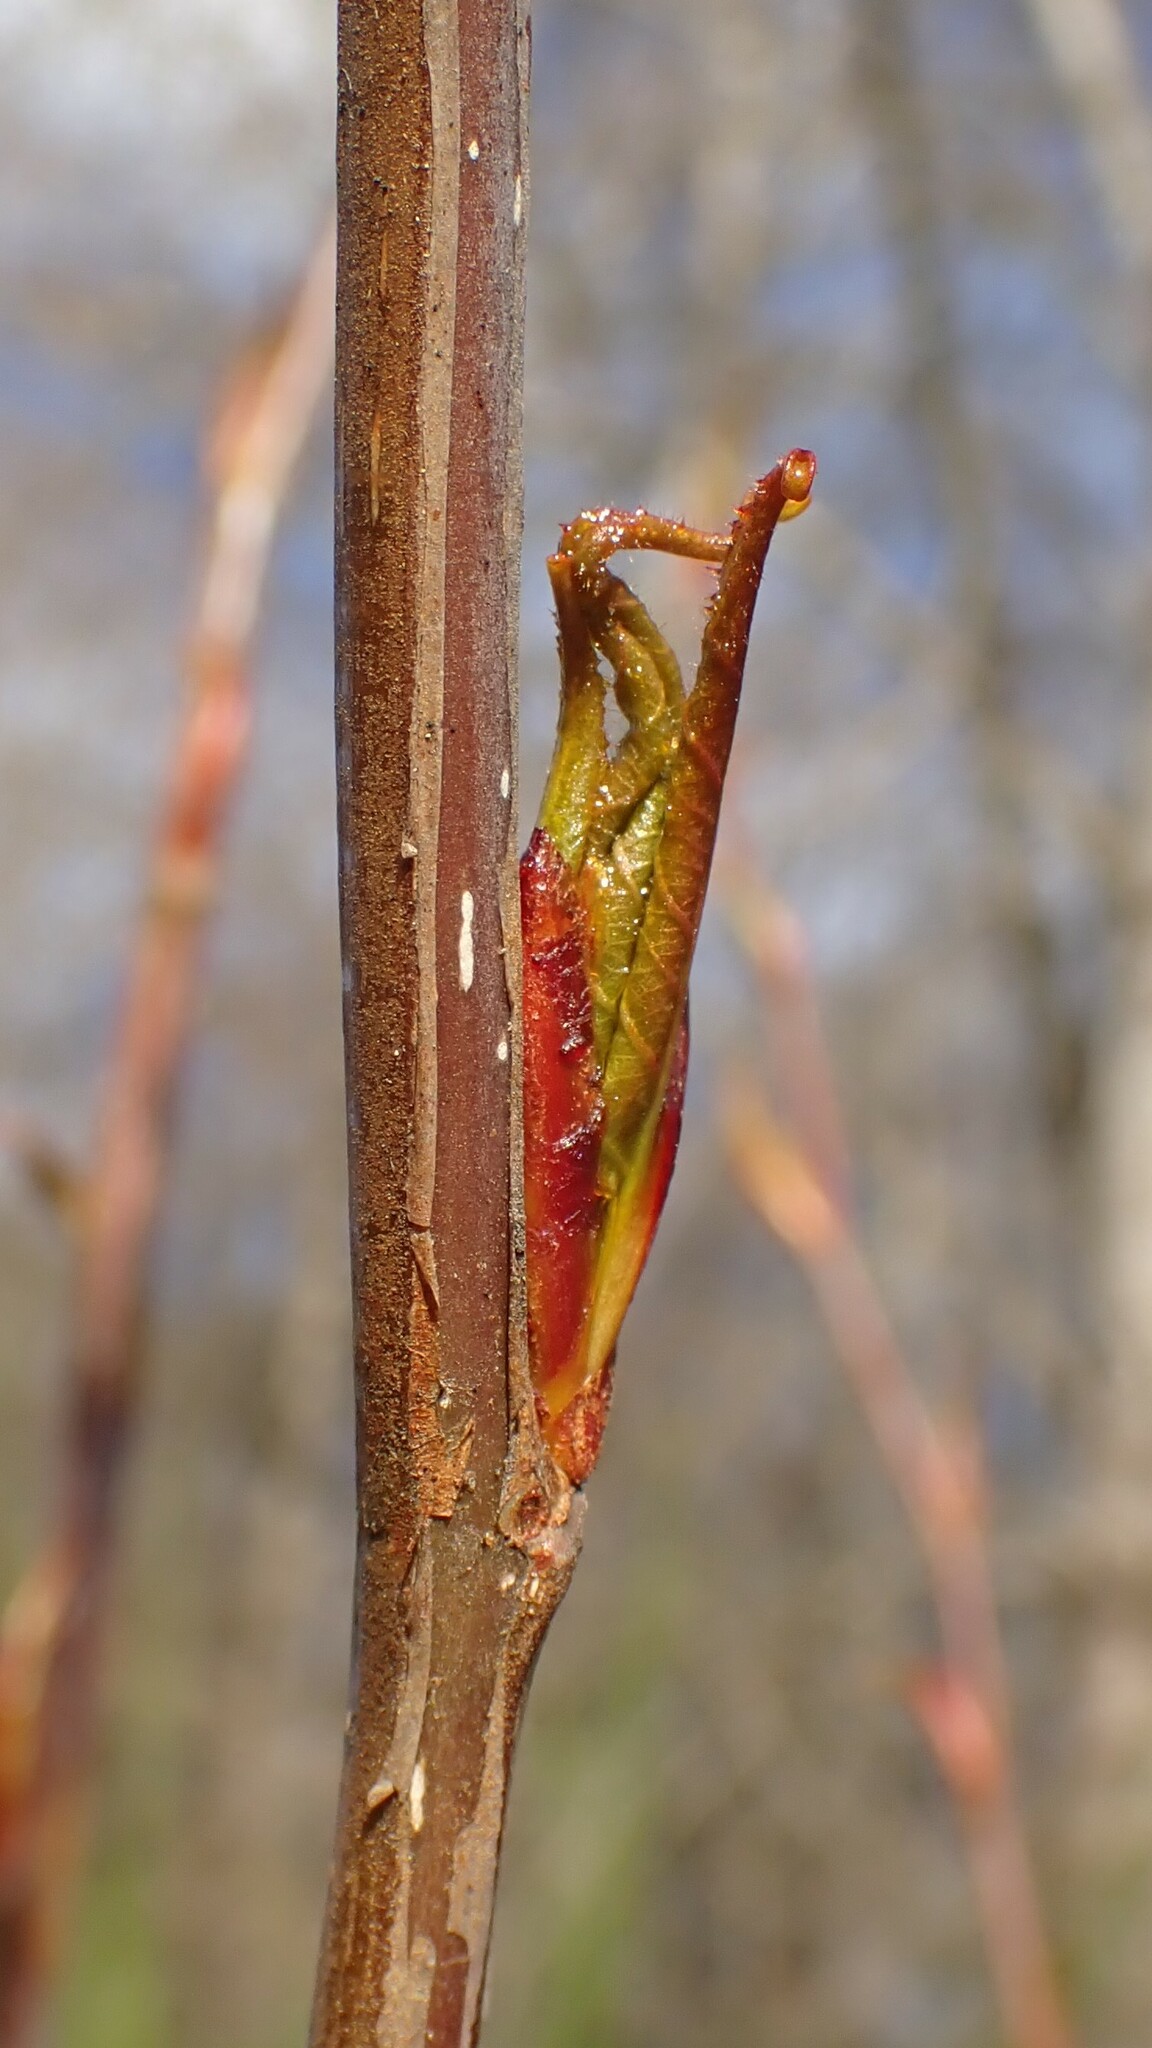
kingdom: Plantae
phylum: Tracheophyta
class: Magnoliopsida
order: Malpighiales
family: Salicaceae
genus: Populus
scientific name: Populus trichocarpa
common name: Black cottonwood
